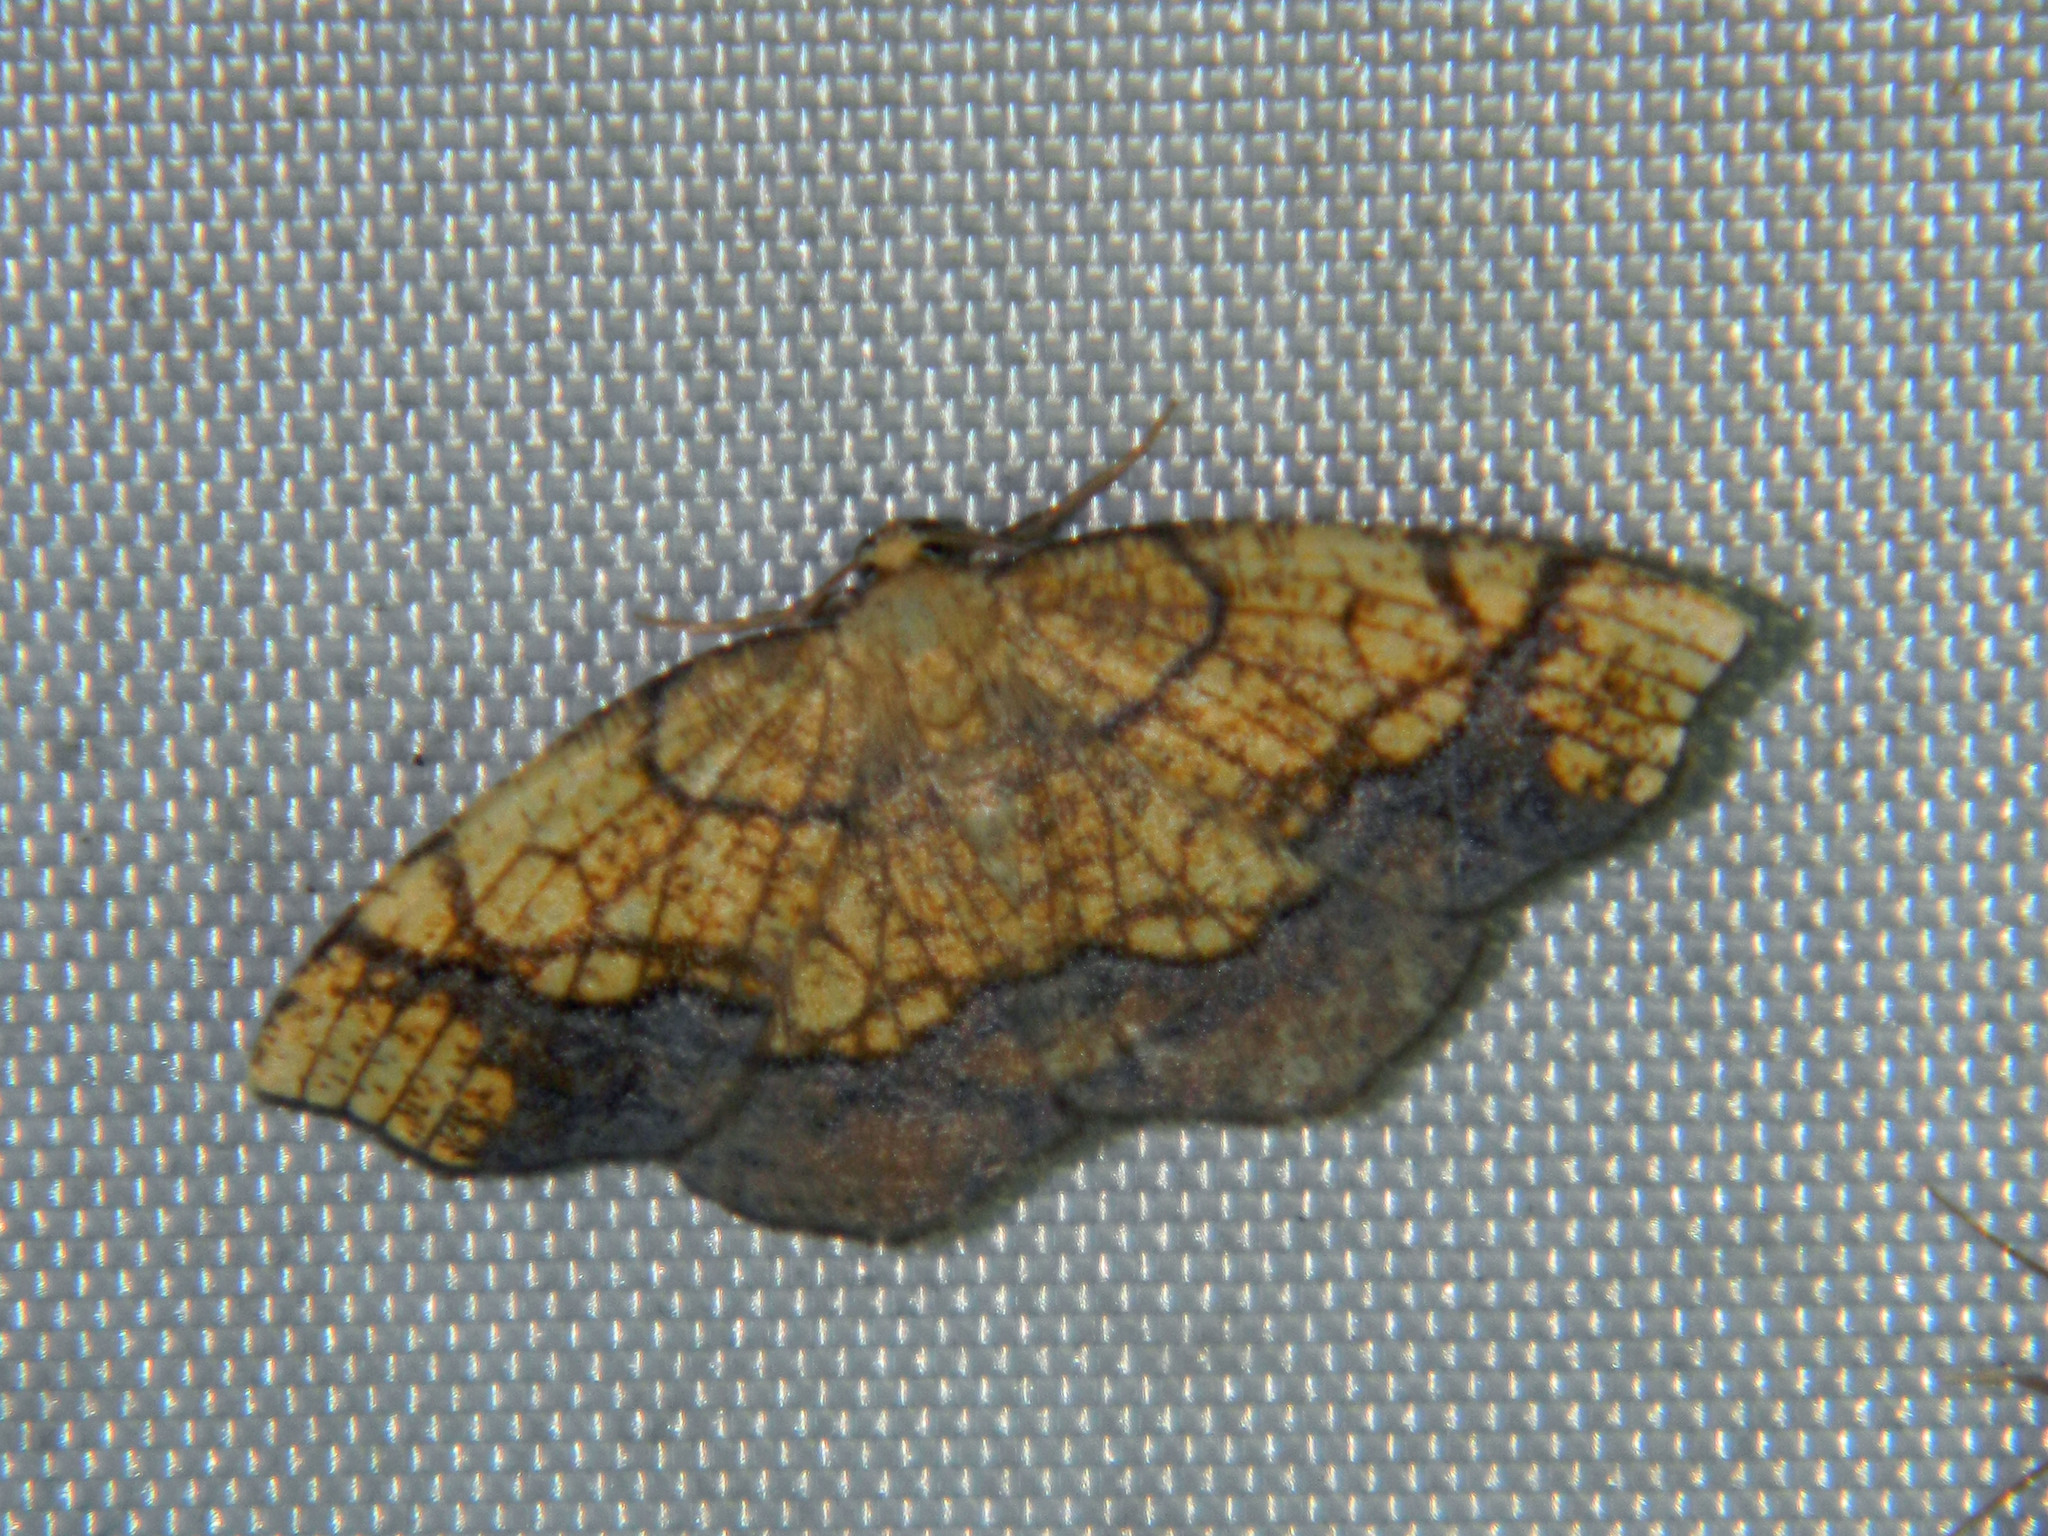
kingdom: Animalia
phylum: Arthropoda
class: Insecta
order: Lepidoptera
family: Geometridae
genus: Nematocampa
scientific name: Nematocampa resistaria
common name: Horned spanworm moth
